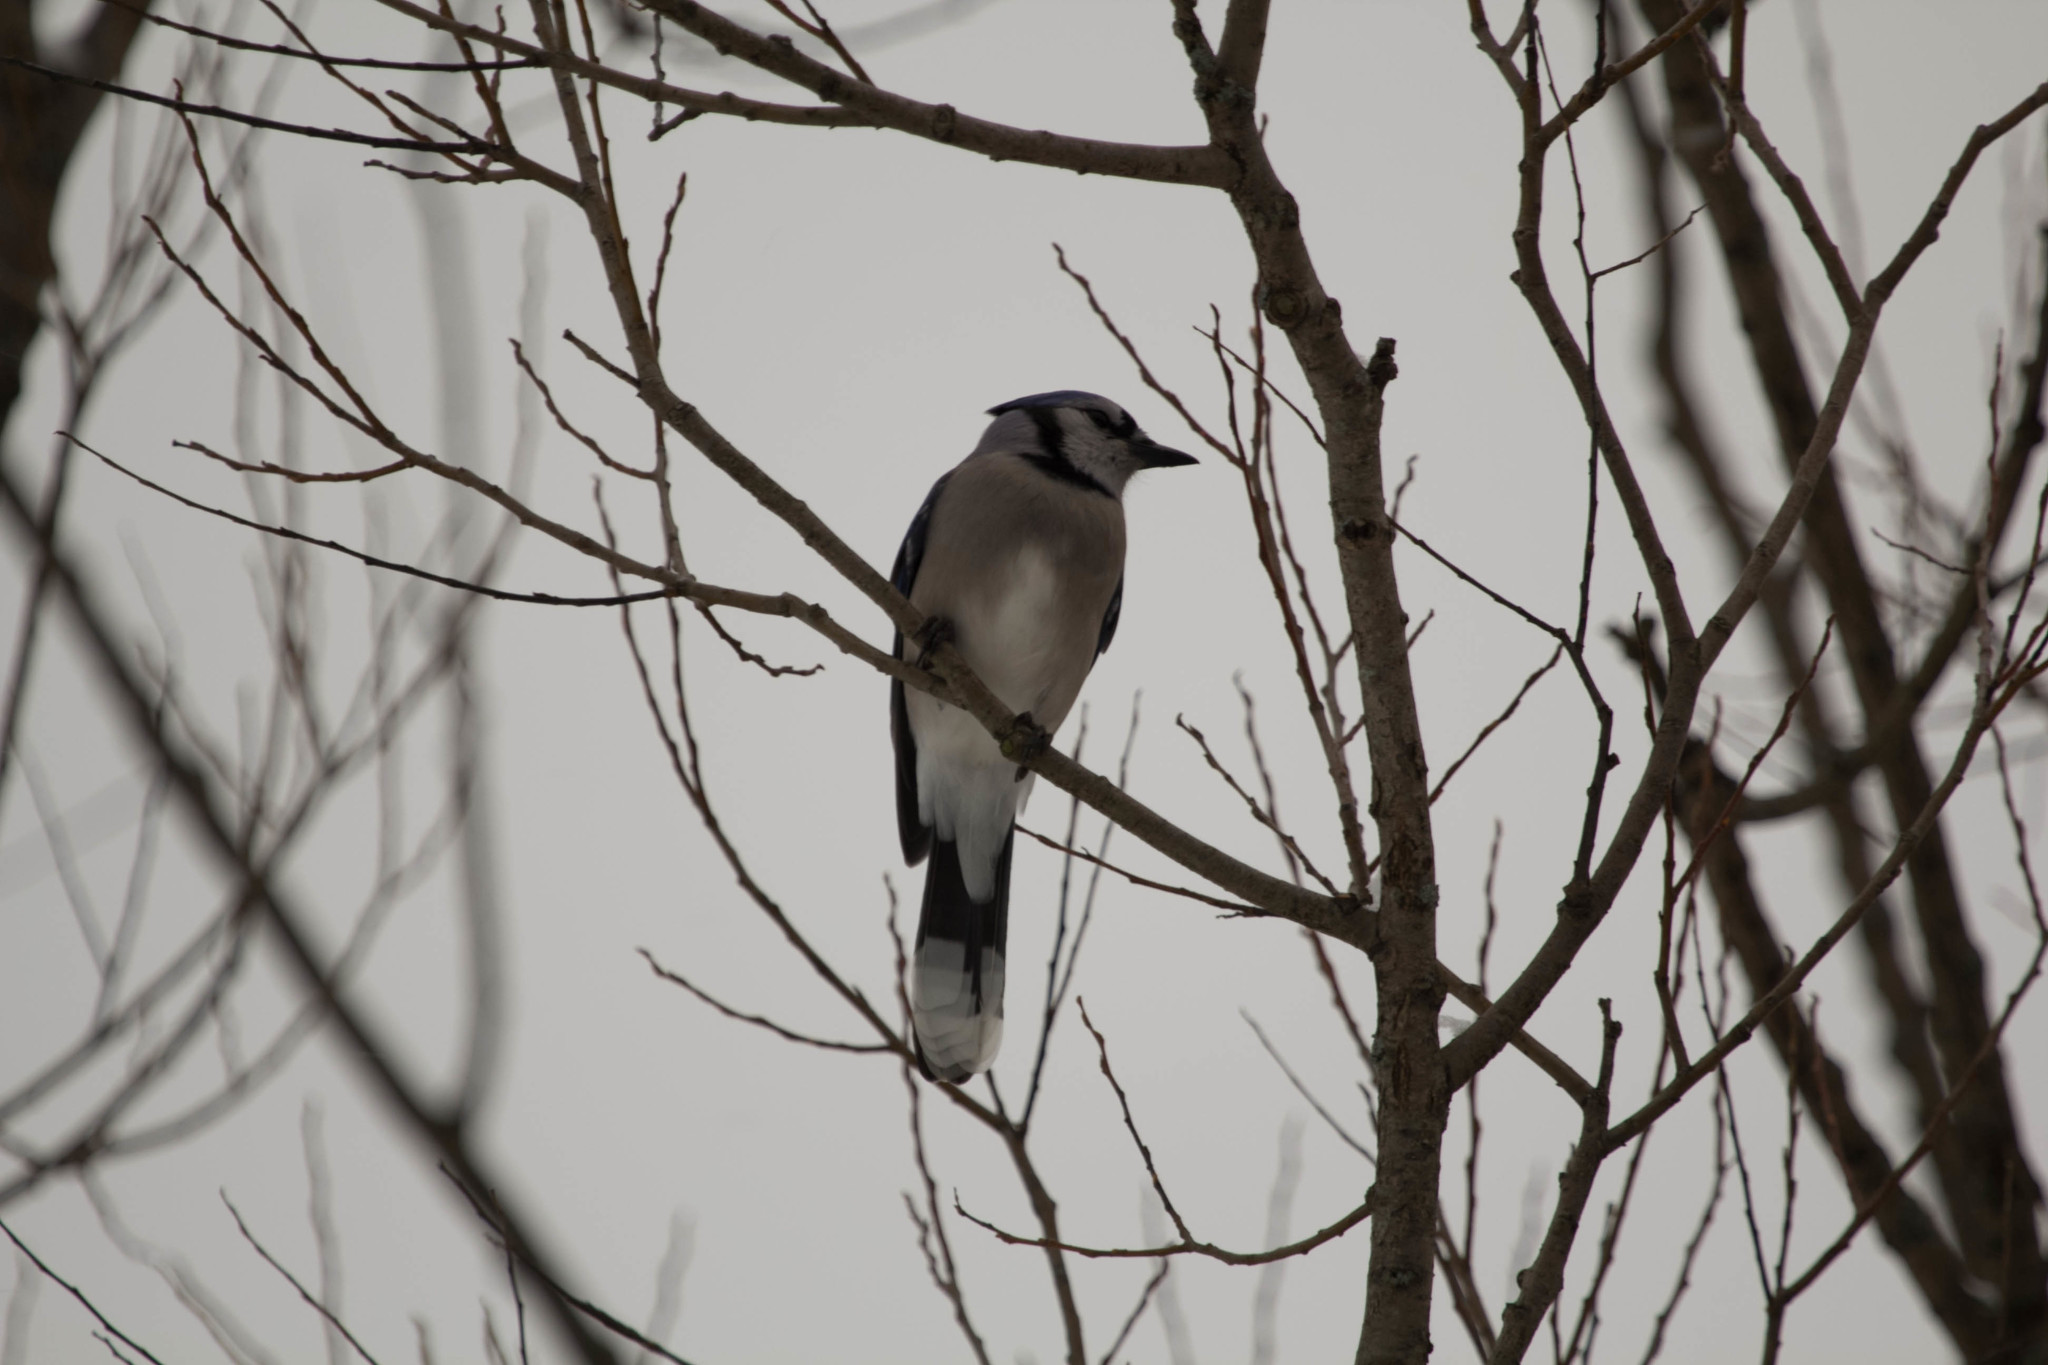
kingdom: Animalia
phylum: Chordata
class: Aves
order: Passeriformes
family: Corvidae
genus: Cyanocitta
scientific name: Cyanocitta cristata
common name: Blue jay
